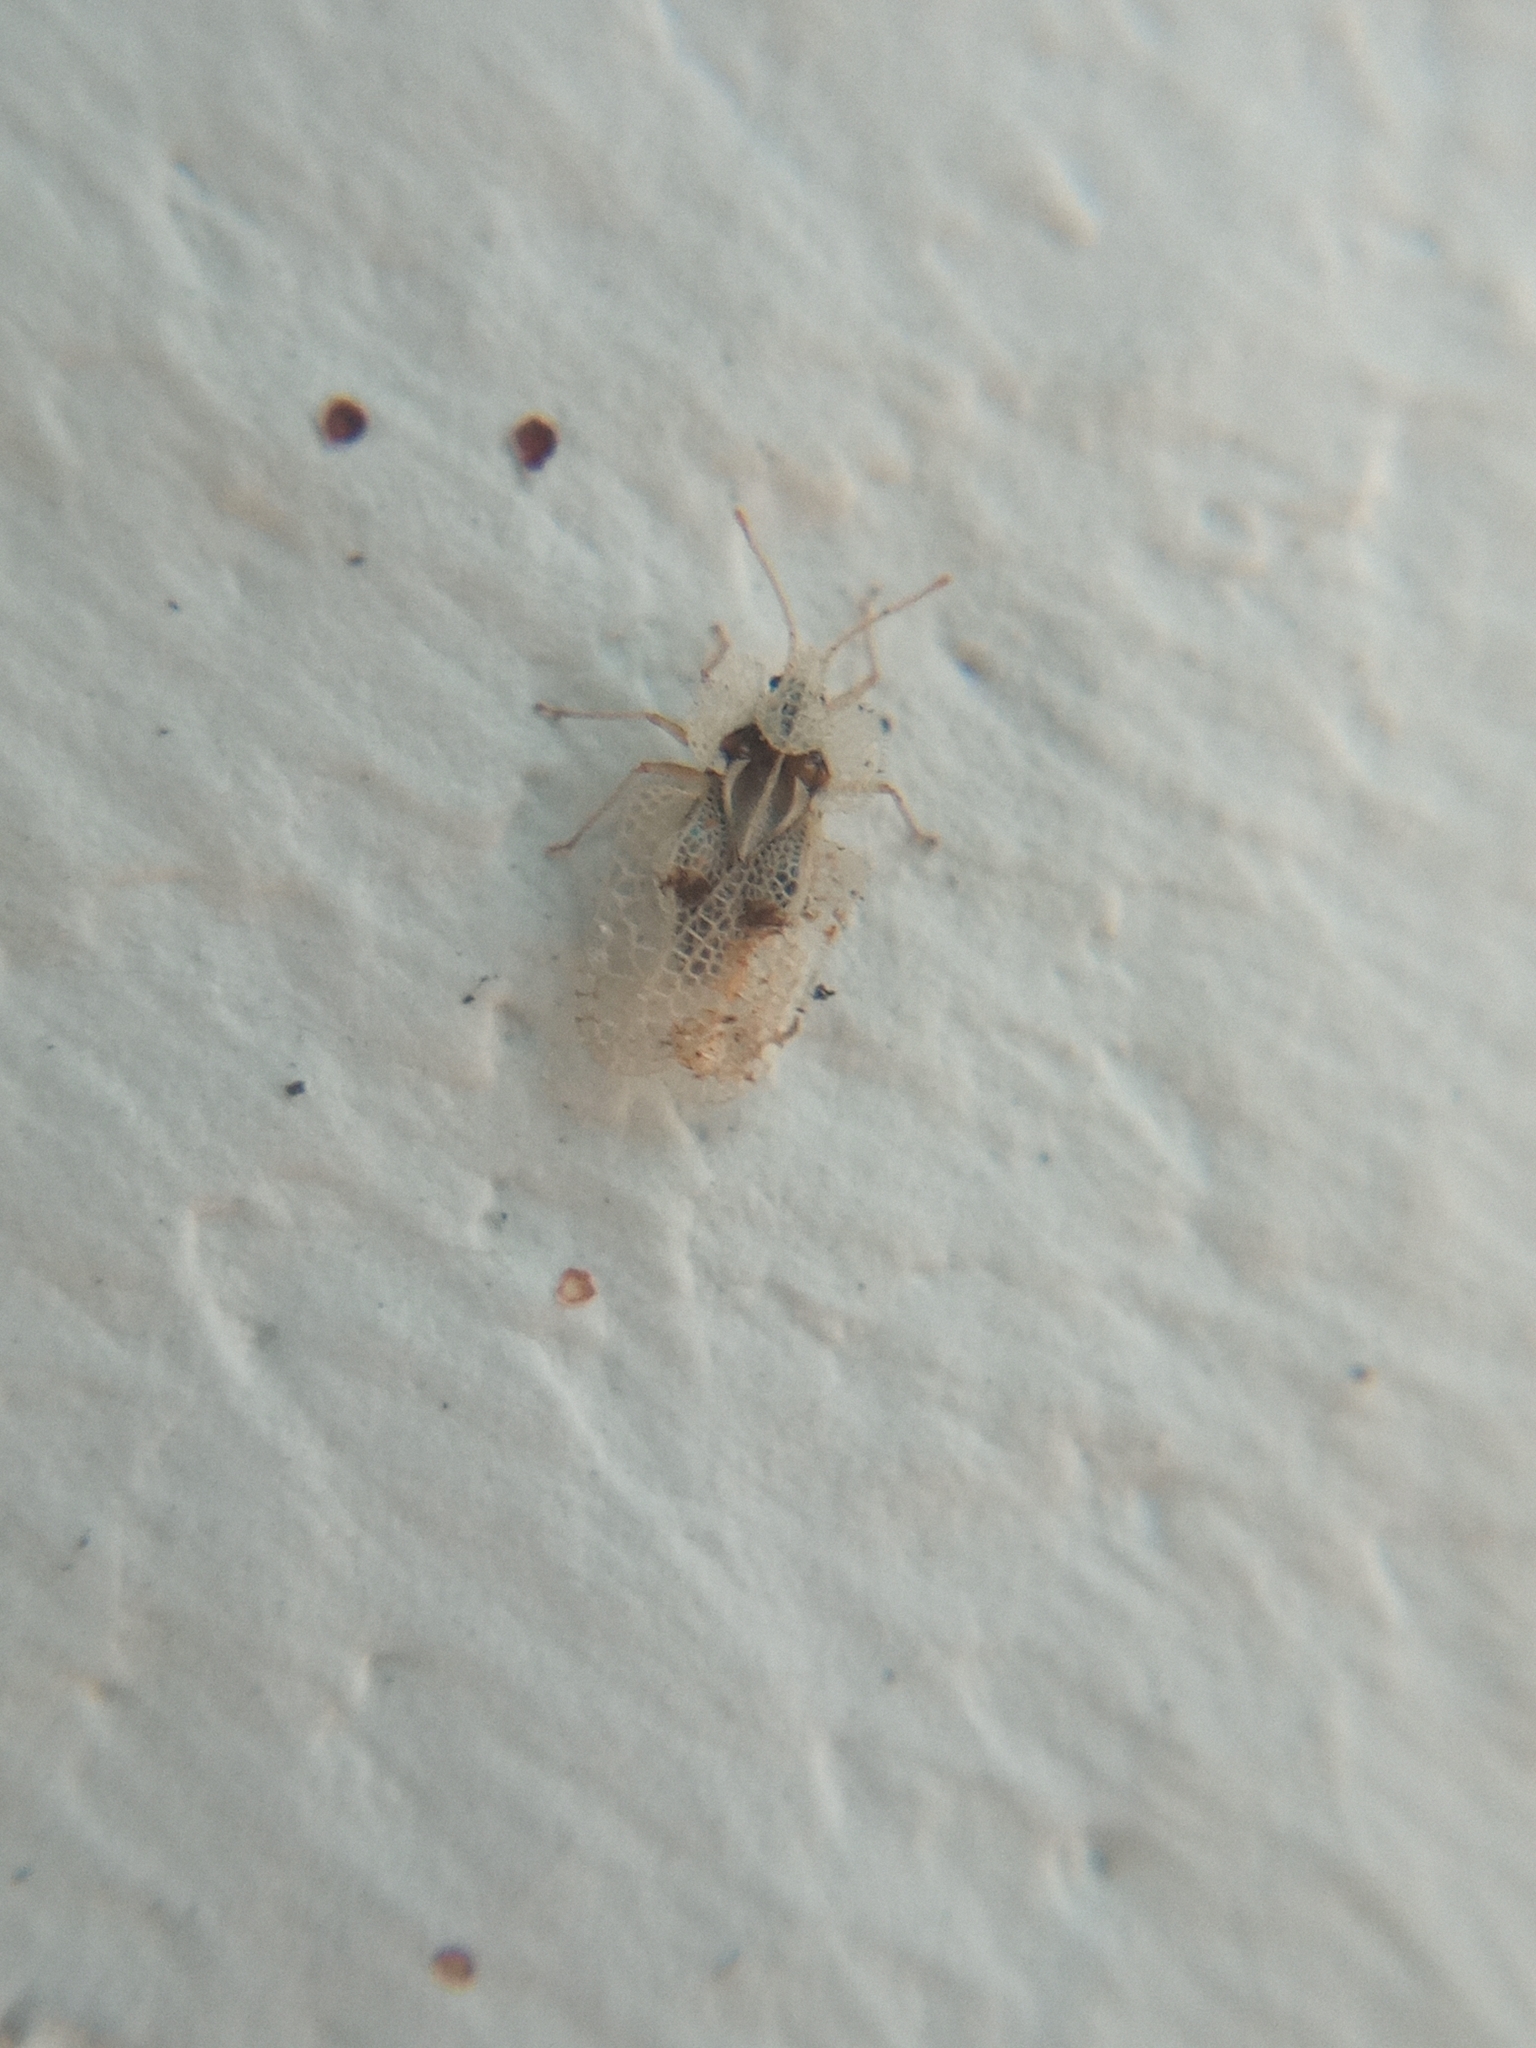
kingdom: Animalia
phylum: Arthropoda
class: Insecta
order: Hemiptera
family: Tingidae
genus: Corythucha
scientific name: Corythucha ciliata
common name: Sycamore lace bug
